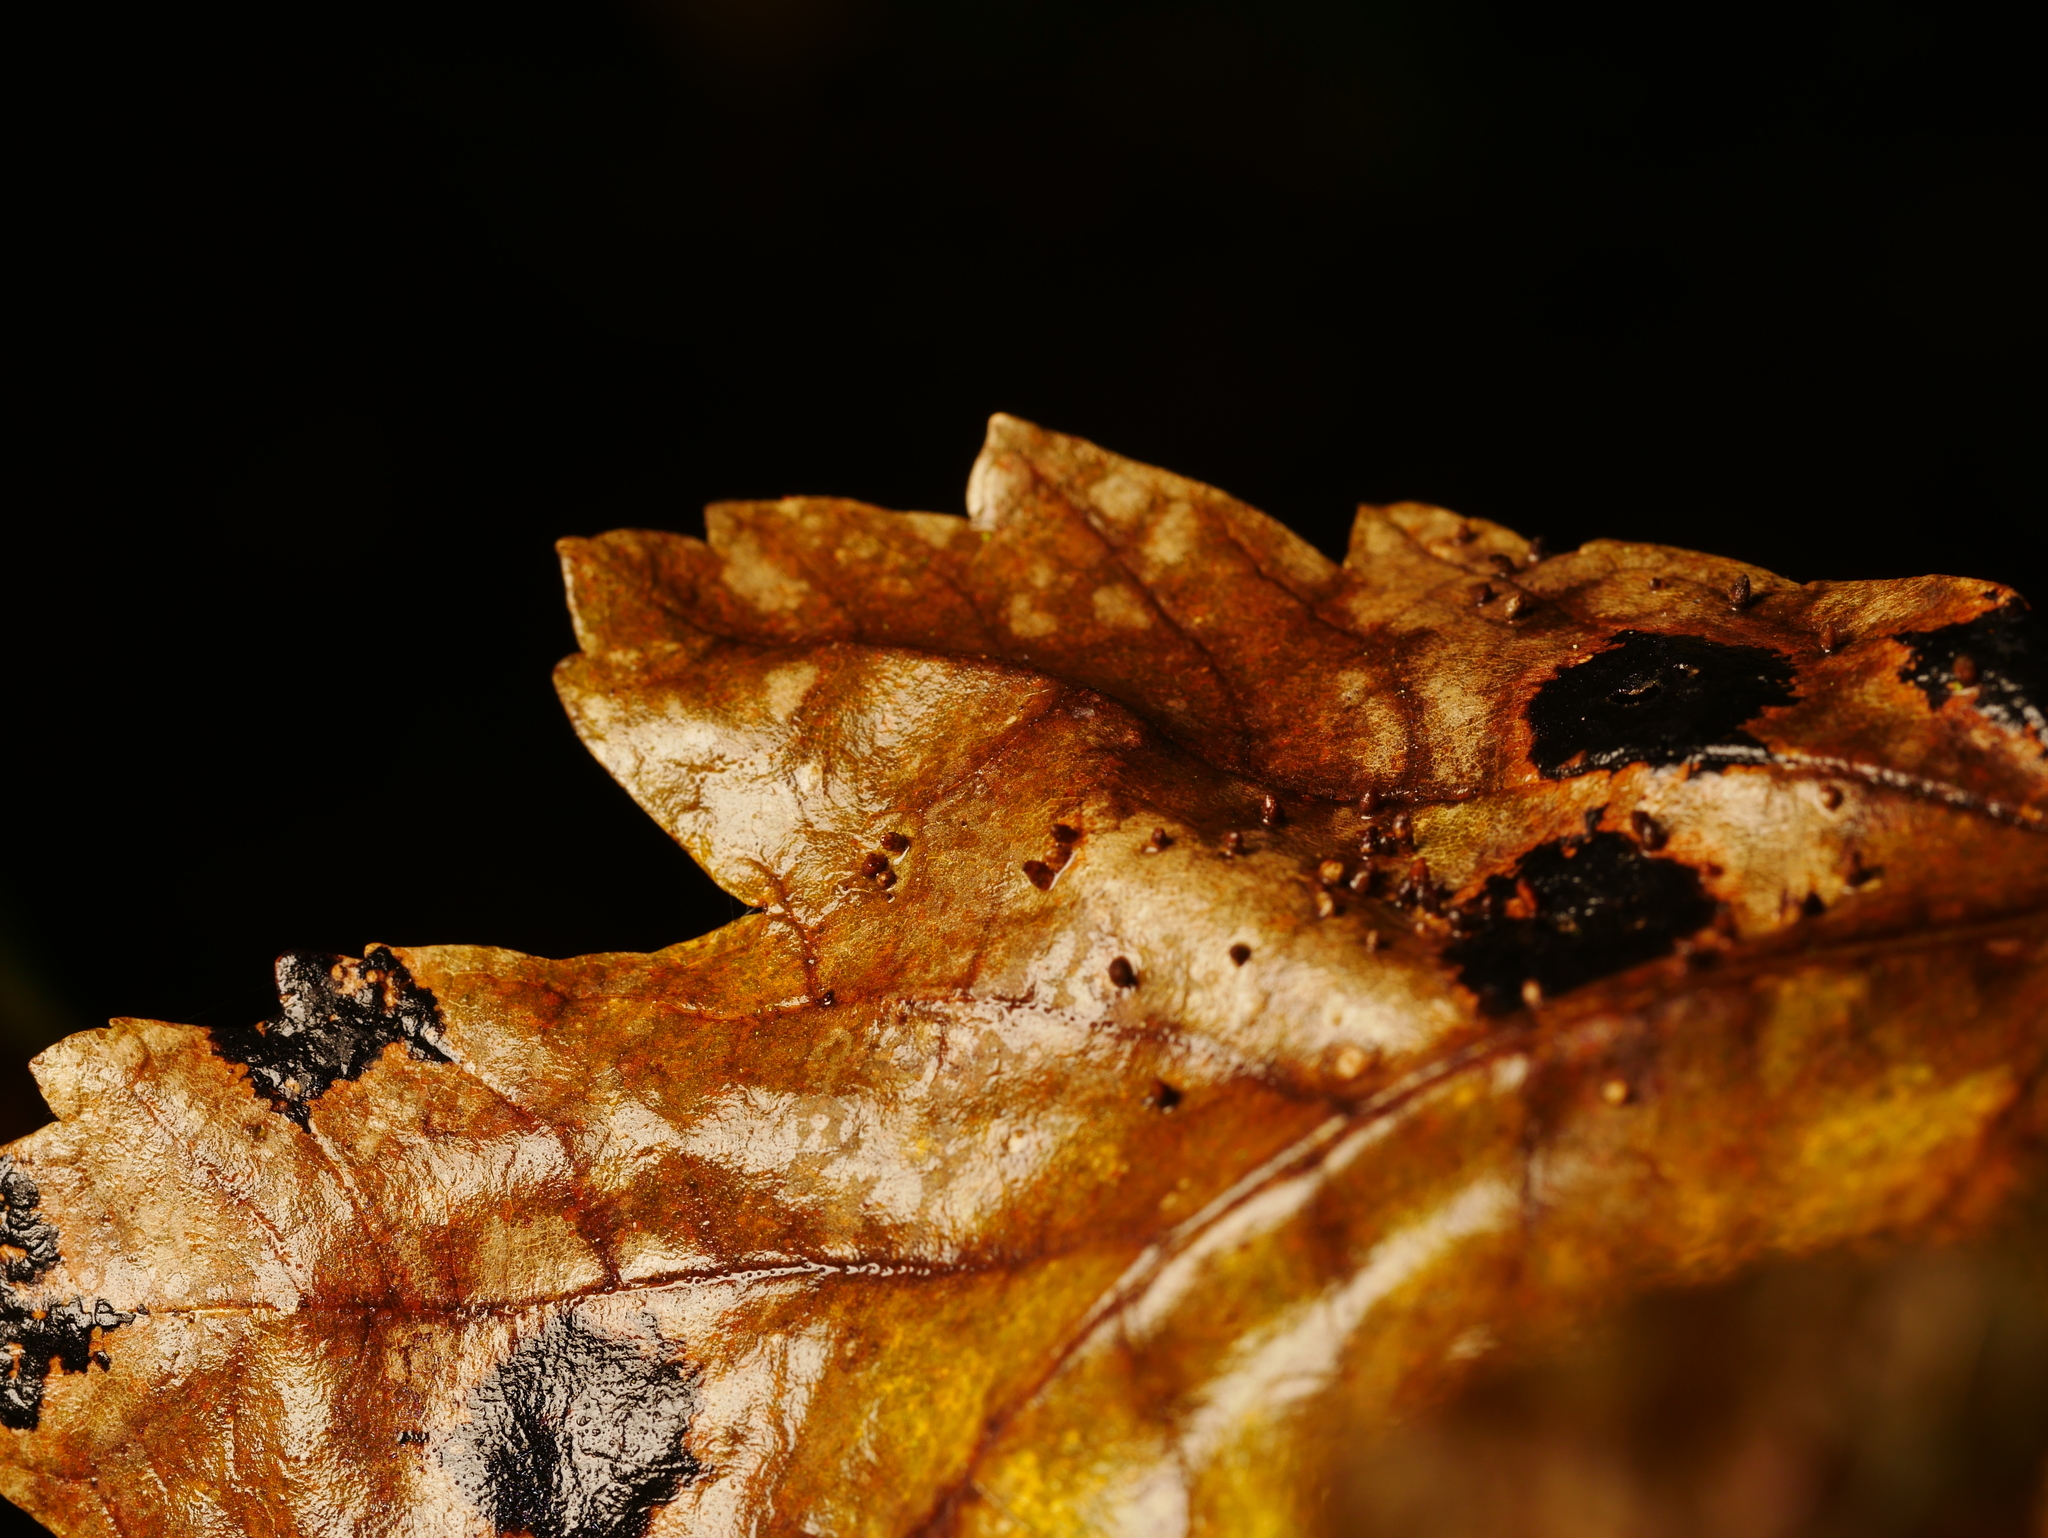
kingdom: Animalia
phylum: Arthropoda
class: Arachnida
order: Trombidiformes
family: Eriophyidae
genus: Aceria
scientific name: Aceria cephaloneus
